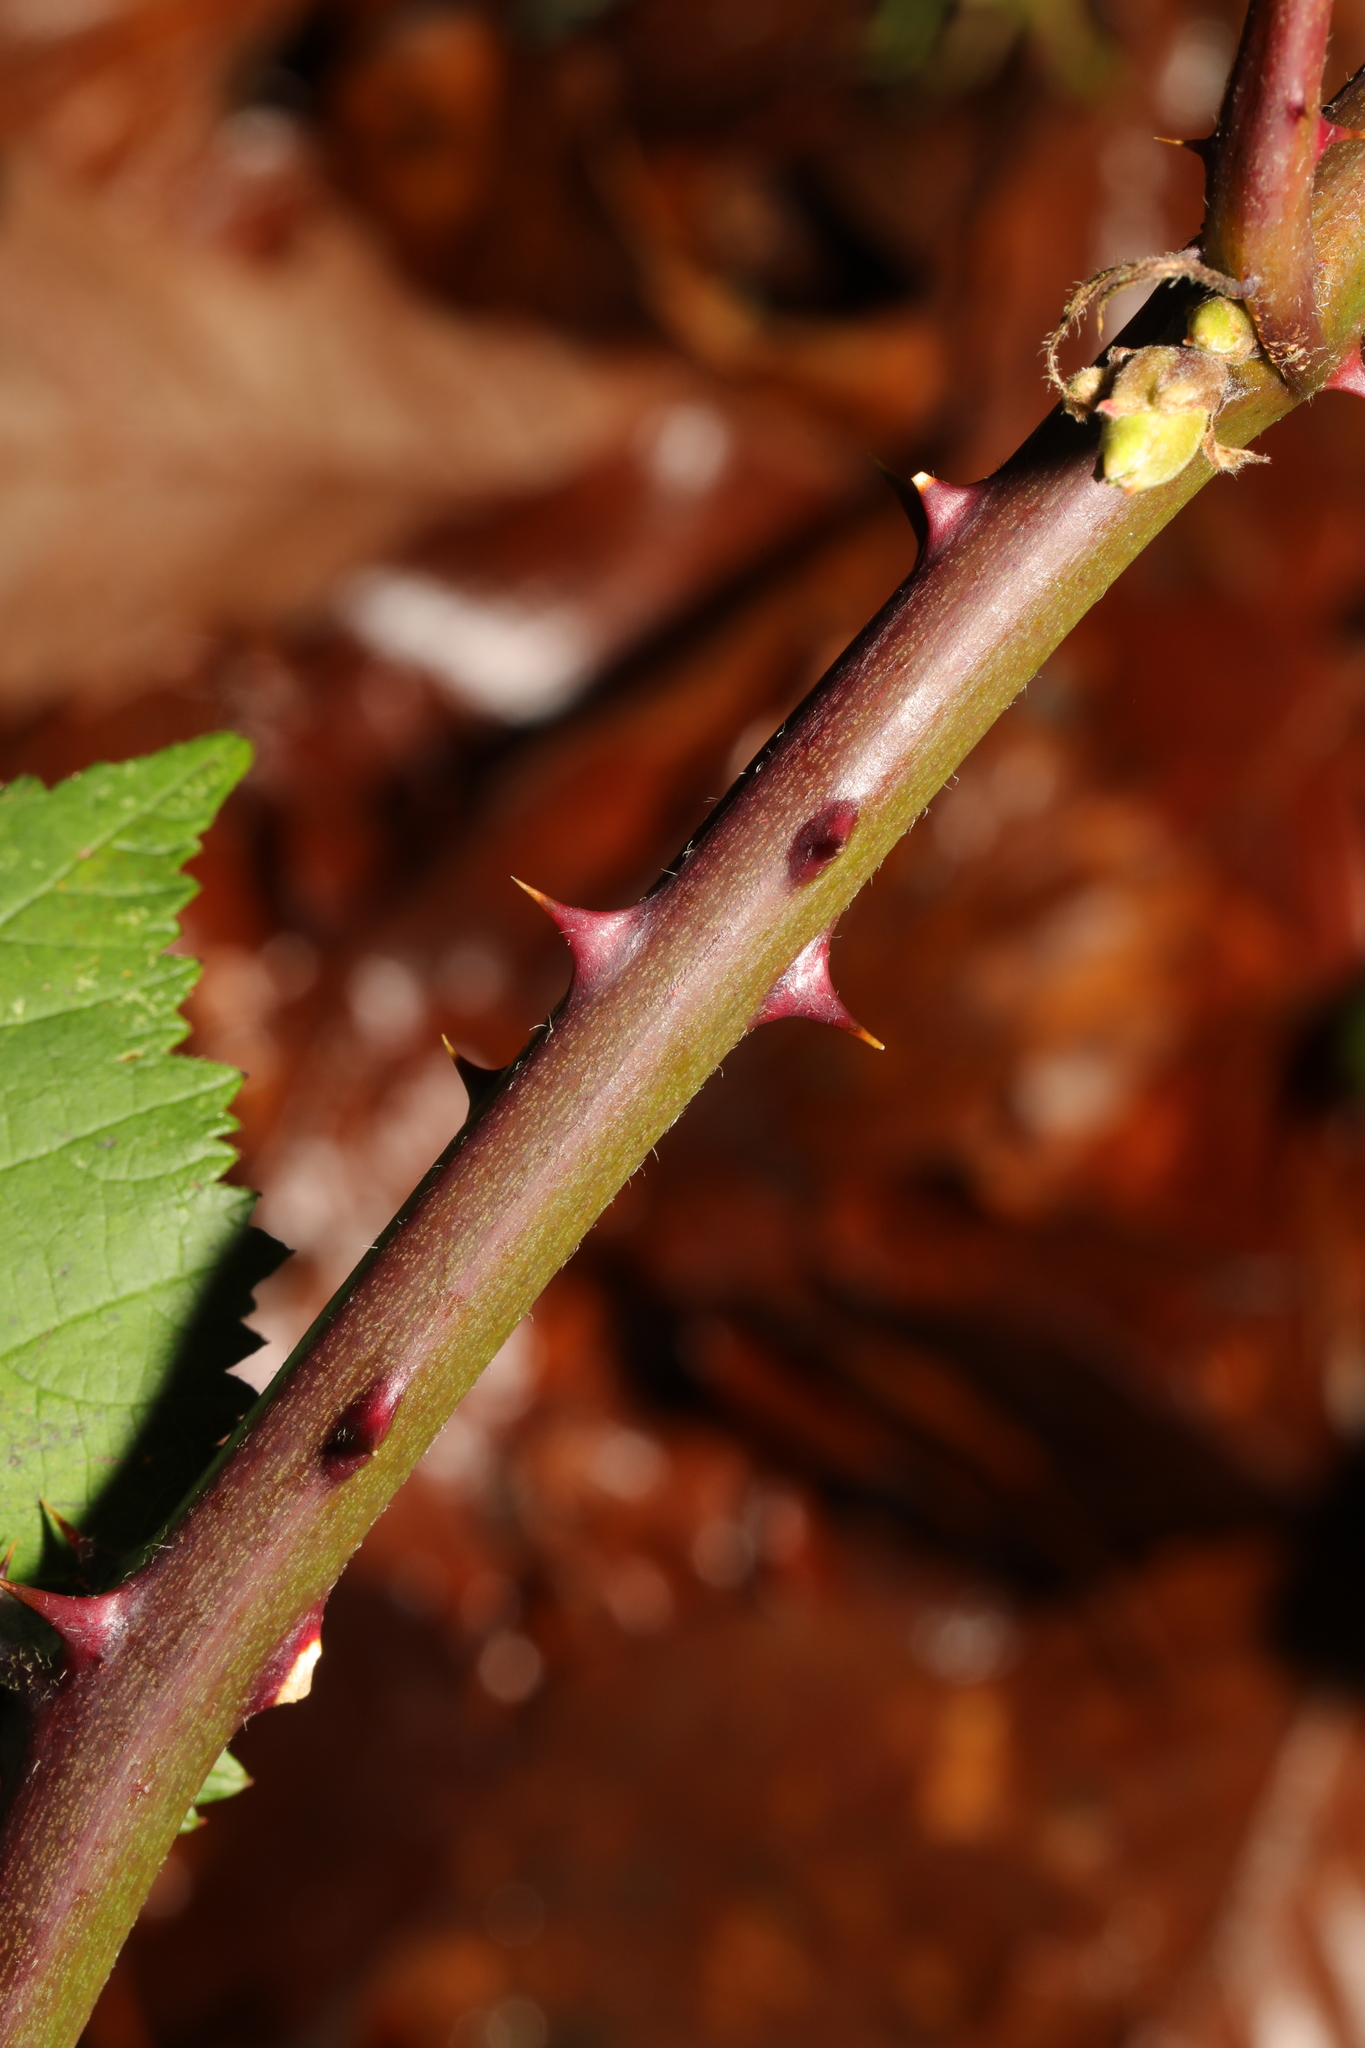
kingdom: Plantae
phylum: Tracheophyta
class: Magnoliopsida
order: Rosales
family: Rosaceae
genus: Rubus
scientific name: Rubus armeniacus
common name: Himalayan blackberry
